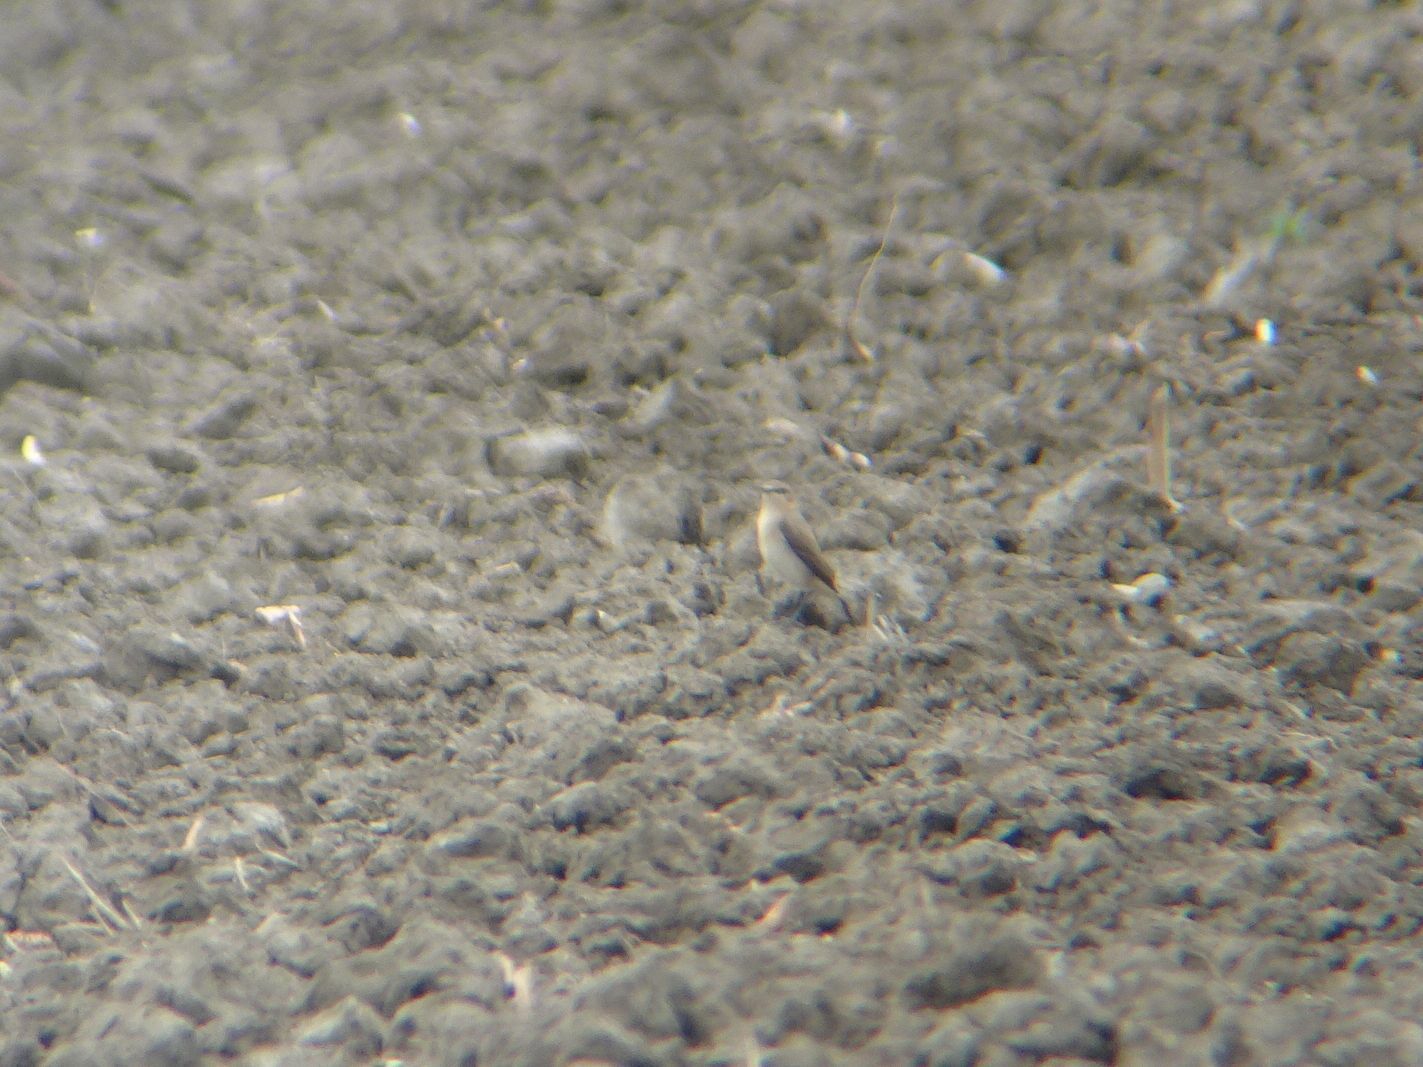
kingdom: Animalia
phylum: Chordata
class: Aves
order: Passeriformes
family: Muscicapidae
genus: Oenanthe
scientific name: Oenanthe oenanthe
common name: Northern wheatear
